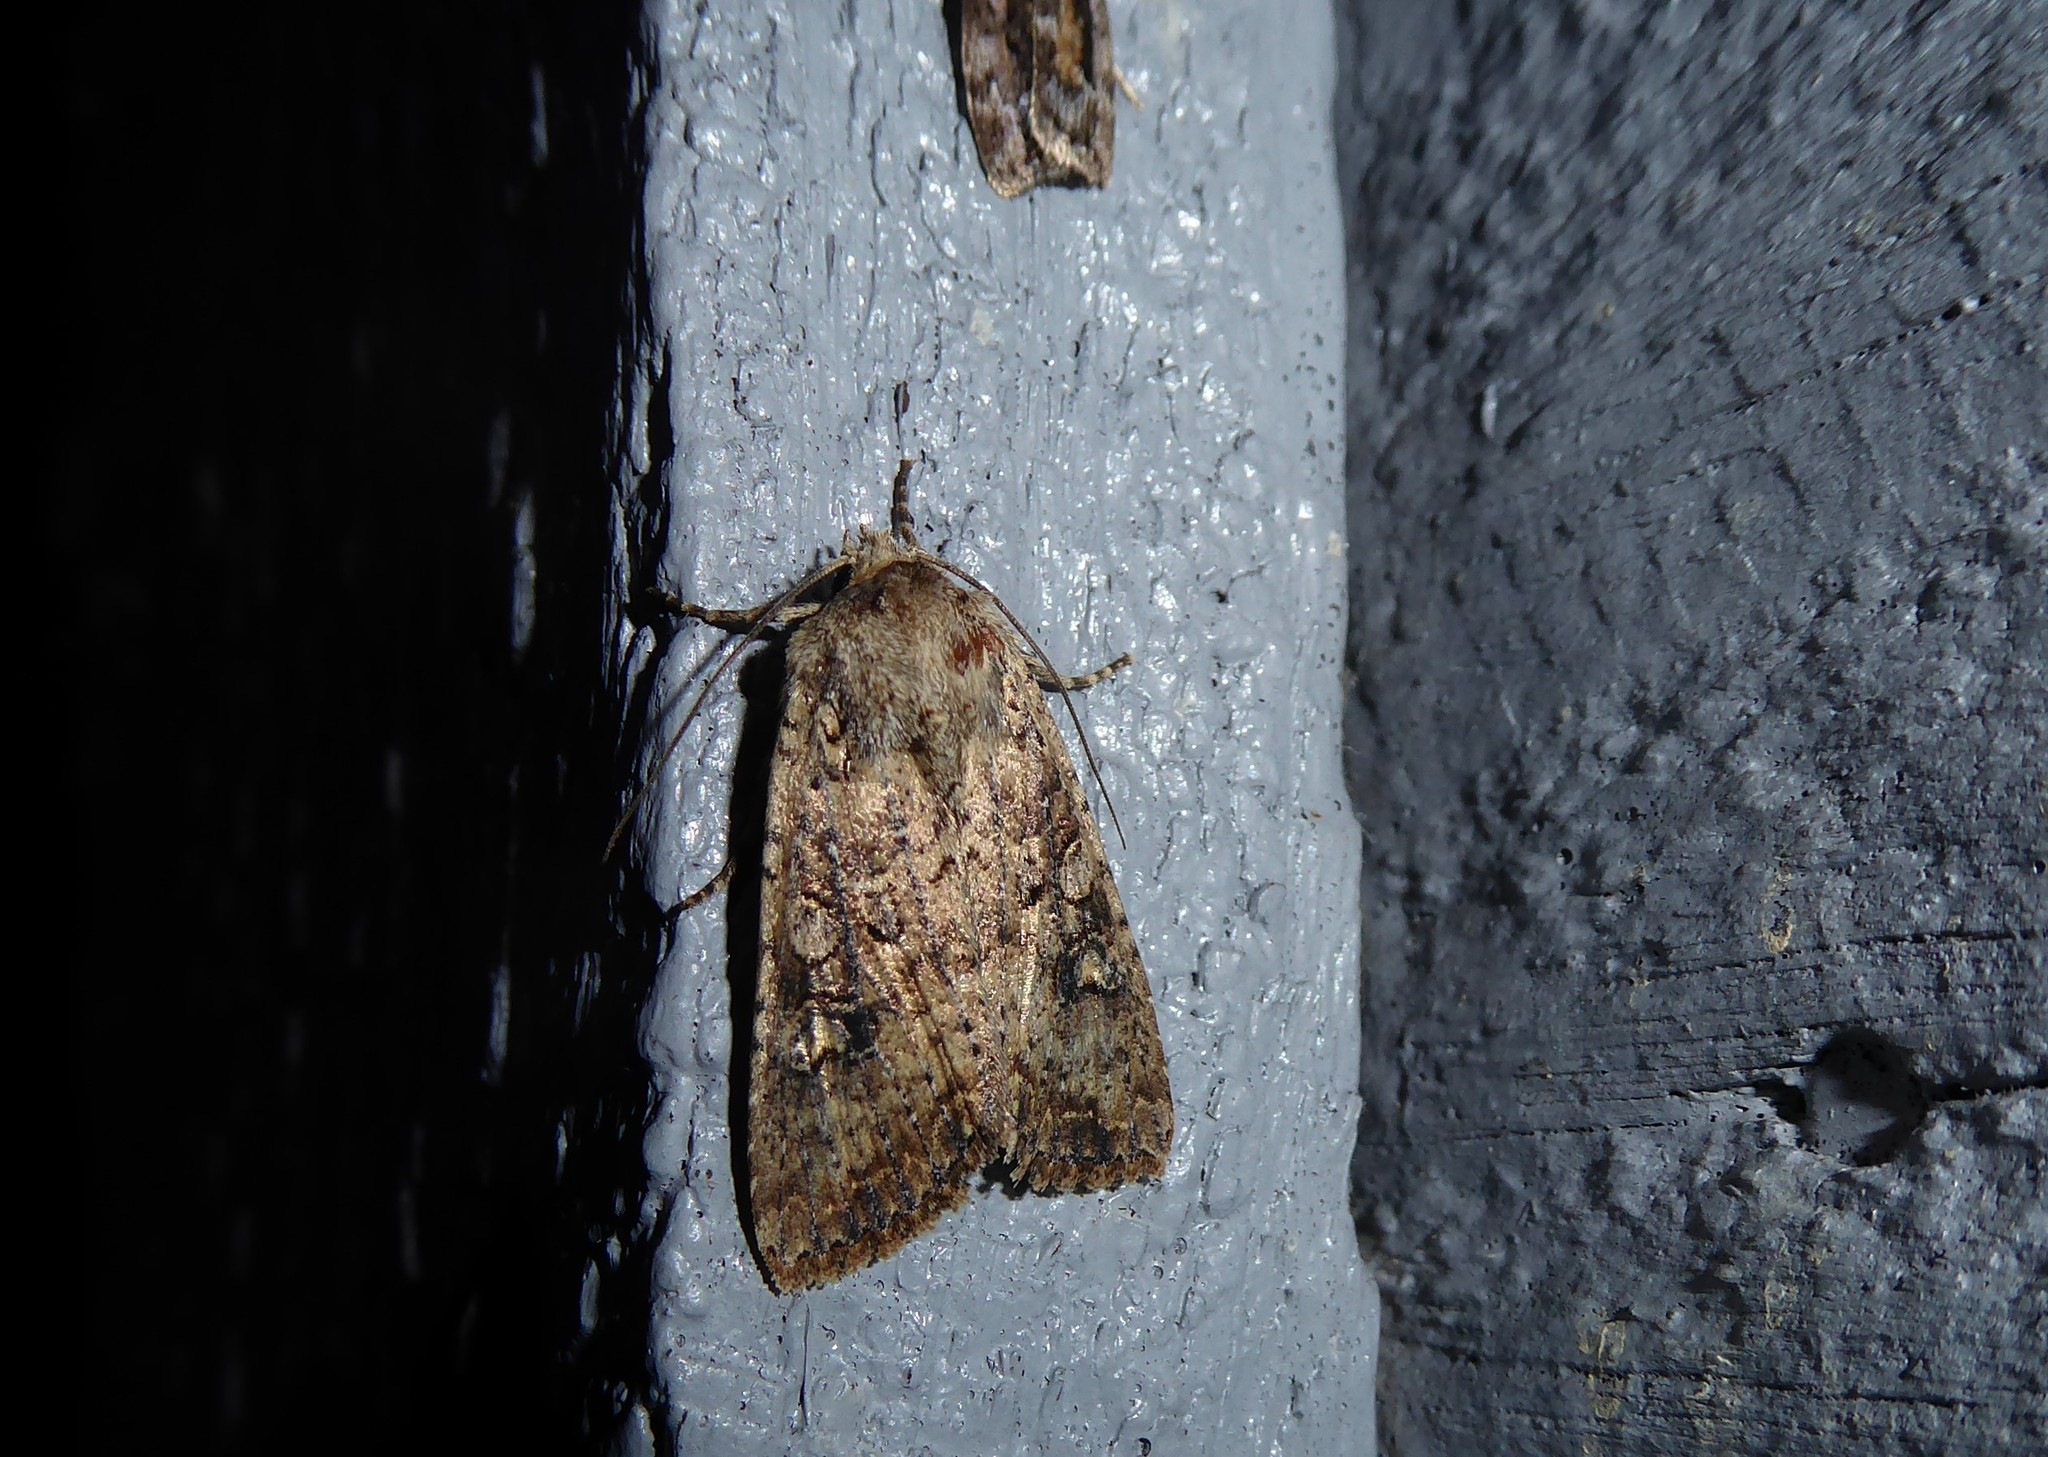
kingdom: Animalia
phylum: Arthropoda
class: Insecta
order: Lepidoptera
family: Noctuidae
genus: Ichneutica
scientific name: Ichneutica morosa
